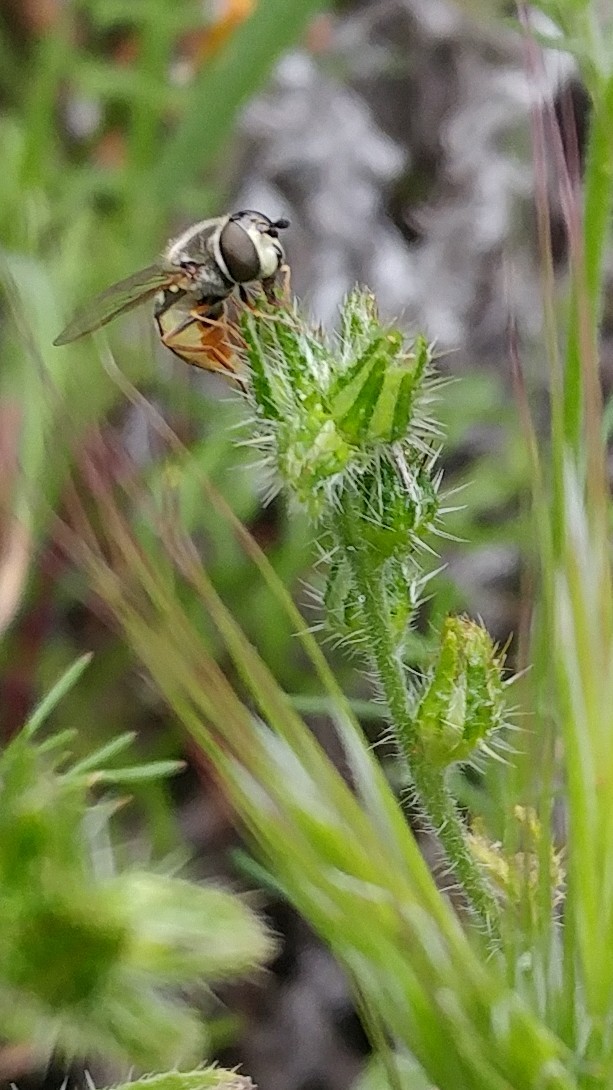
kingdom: Animalia
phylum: Arthropoda
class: Insecta
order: Diptera
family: Syrphidae
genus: Eupeodes
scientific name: Eupeodes volucris
